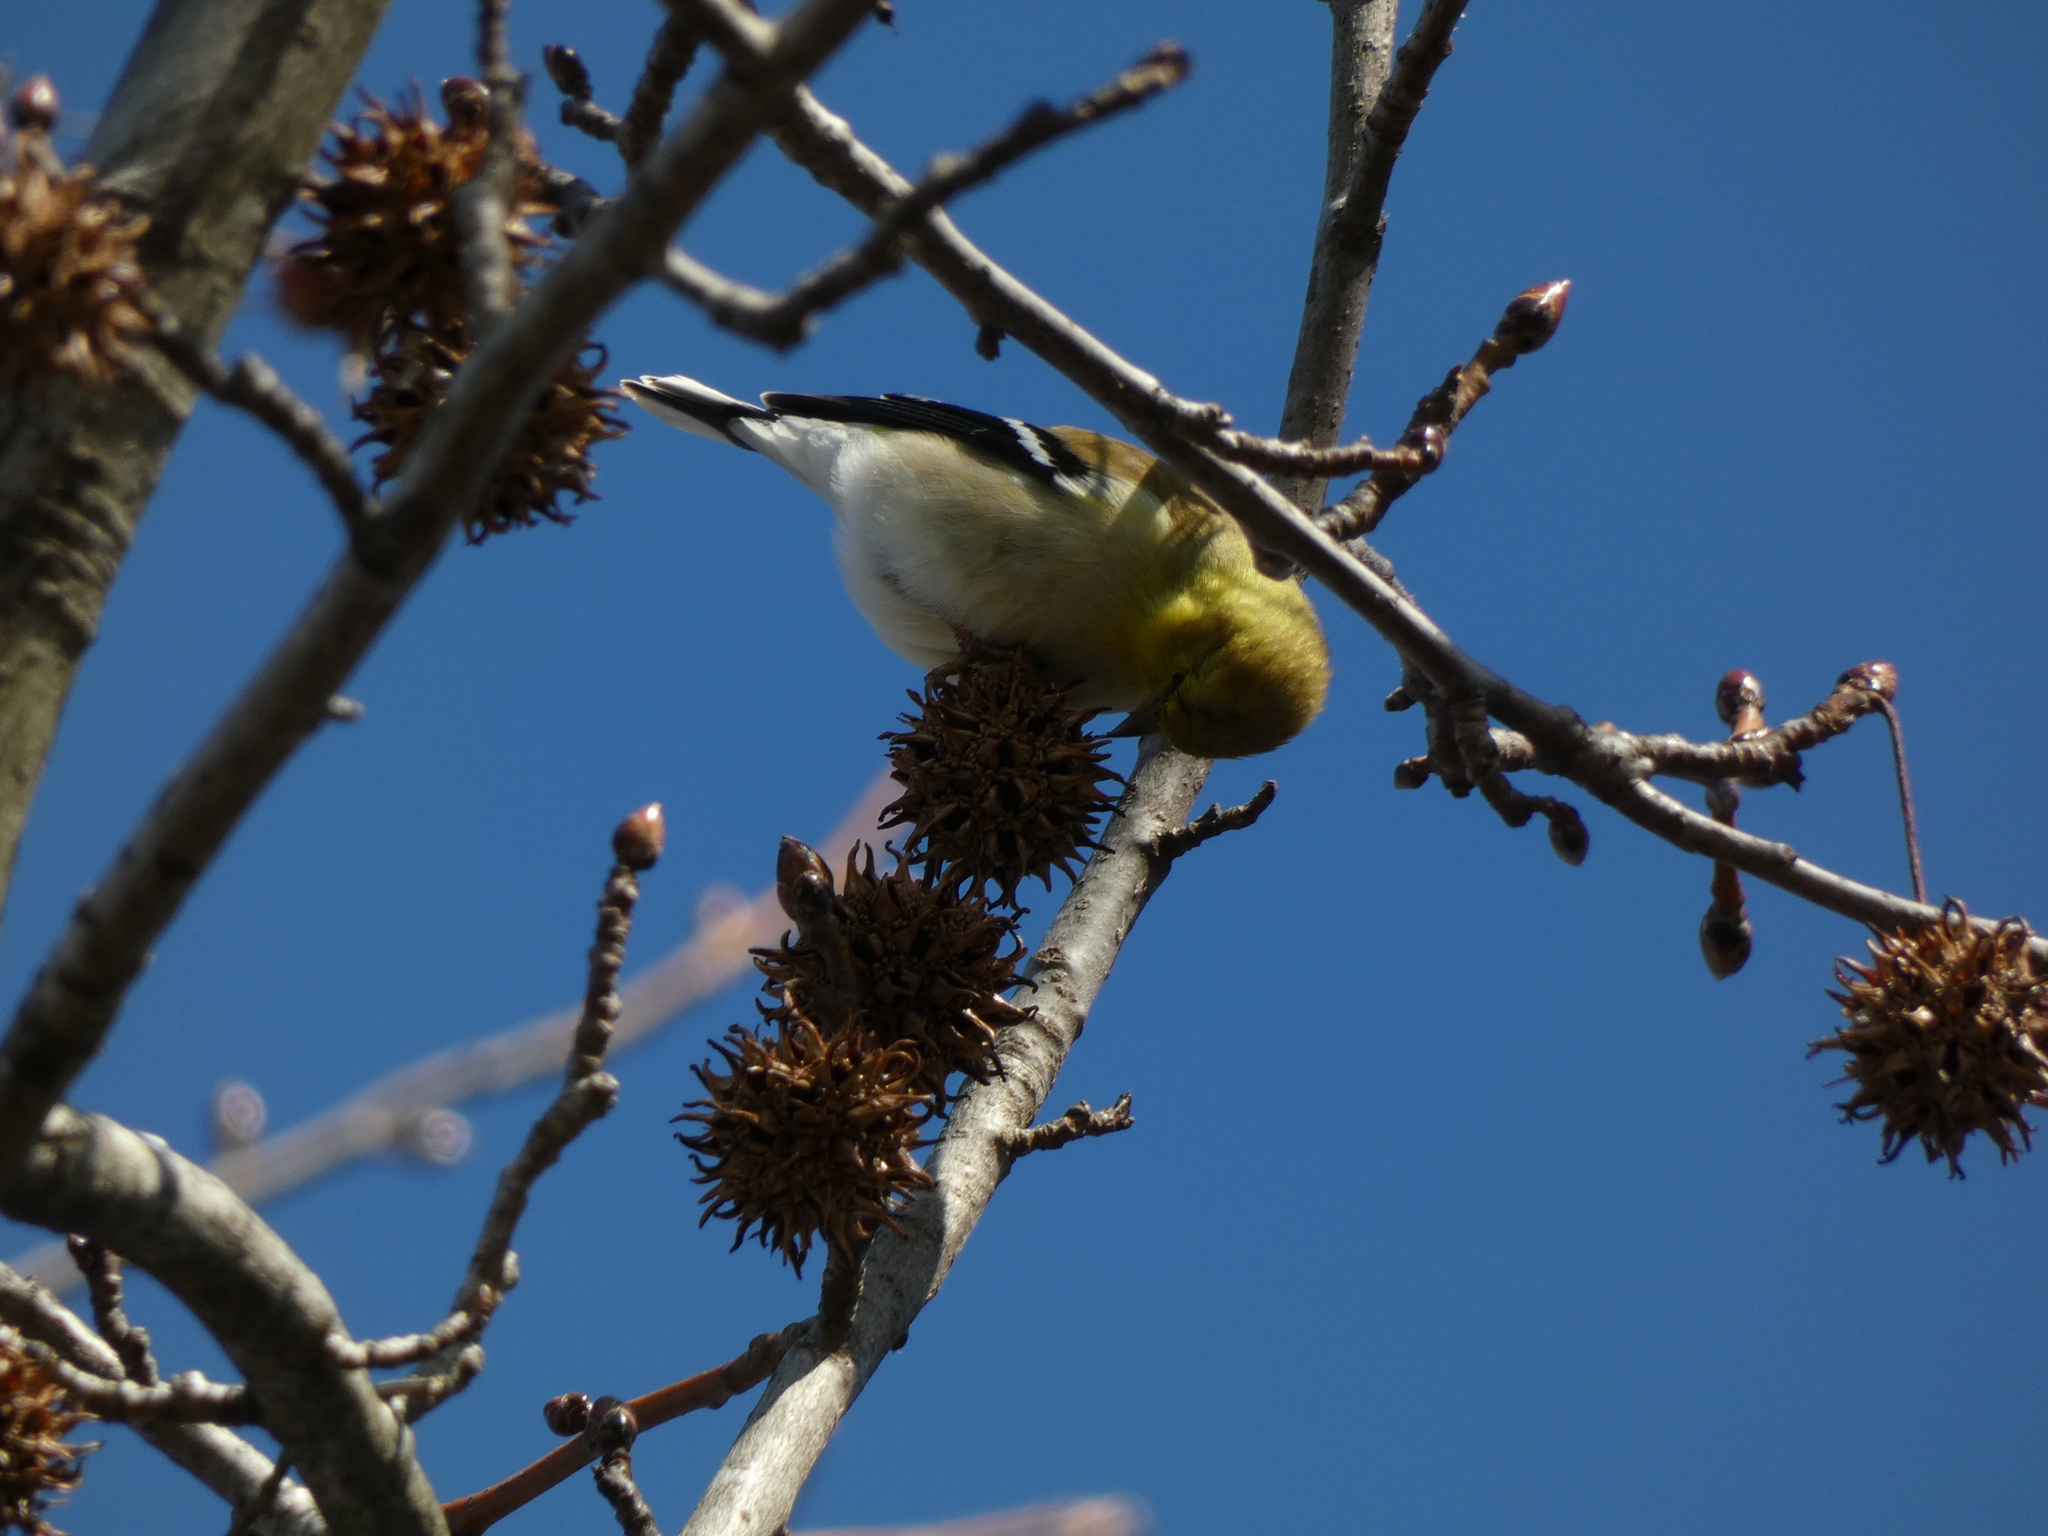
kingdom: Animalia
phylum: Chordata
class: Aves
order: Passeriformes
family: Fringillidae
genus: Spinus
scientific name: Spinus tristis
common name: American goldfinch
